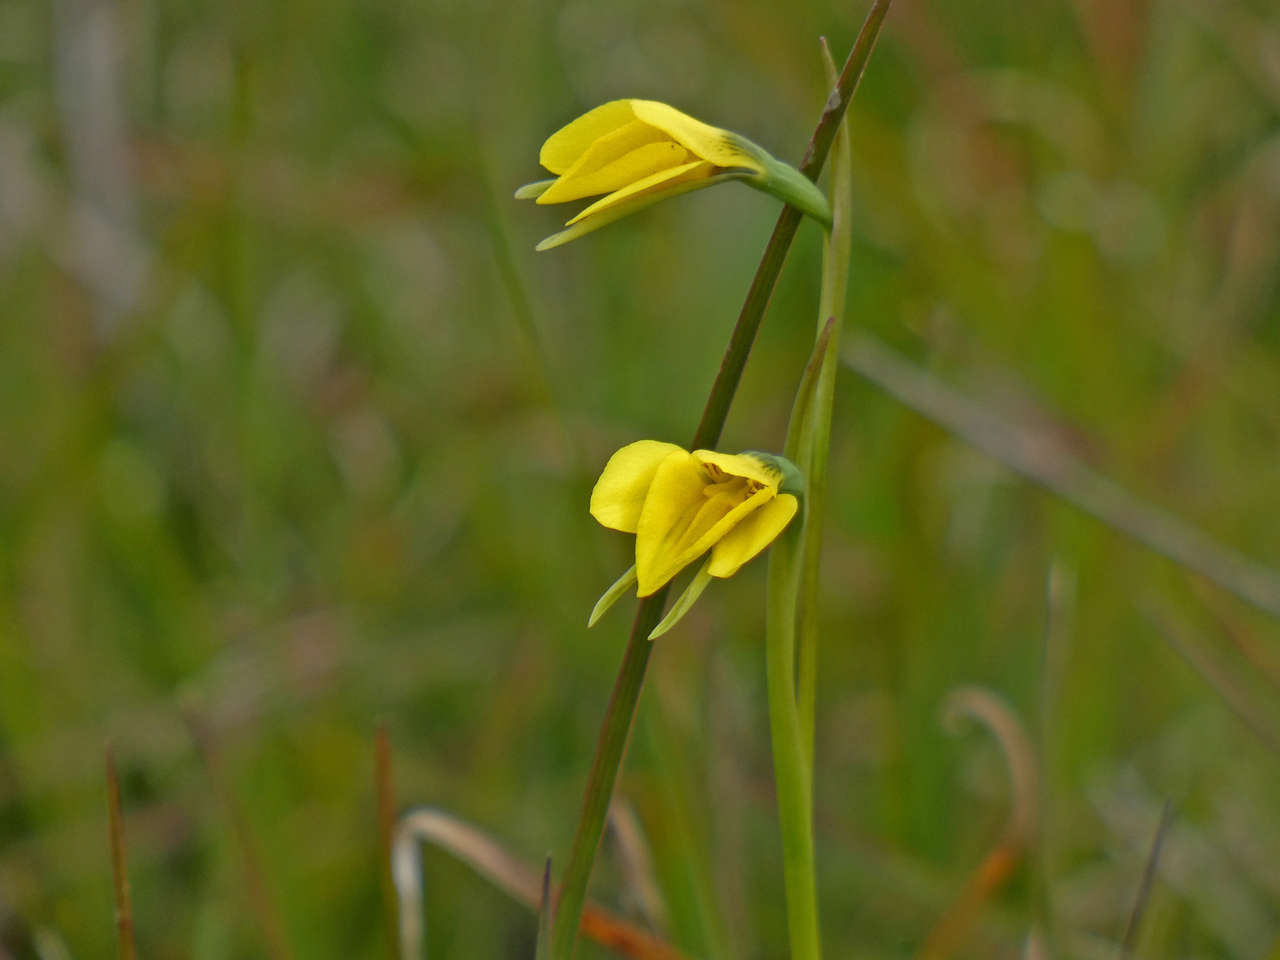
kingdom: Plantae
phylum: Tracheophyta
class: Liliopsida
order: Asparagales
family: Orchidaceae
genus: Diuris
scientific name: Diuris chryseopsis
